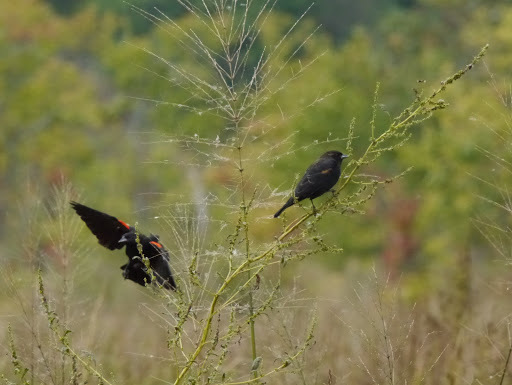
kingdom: Animalia
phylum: Chordata
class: Aves
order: Passeriformes
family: Icteridae
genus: Agelaius
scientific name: Agelaius phoeniceus
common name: Red-winged blackbird
